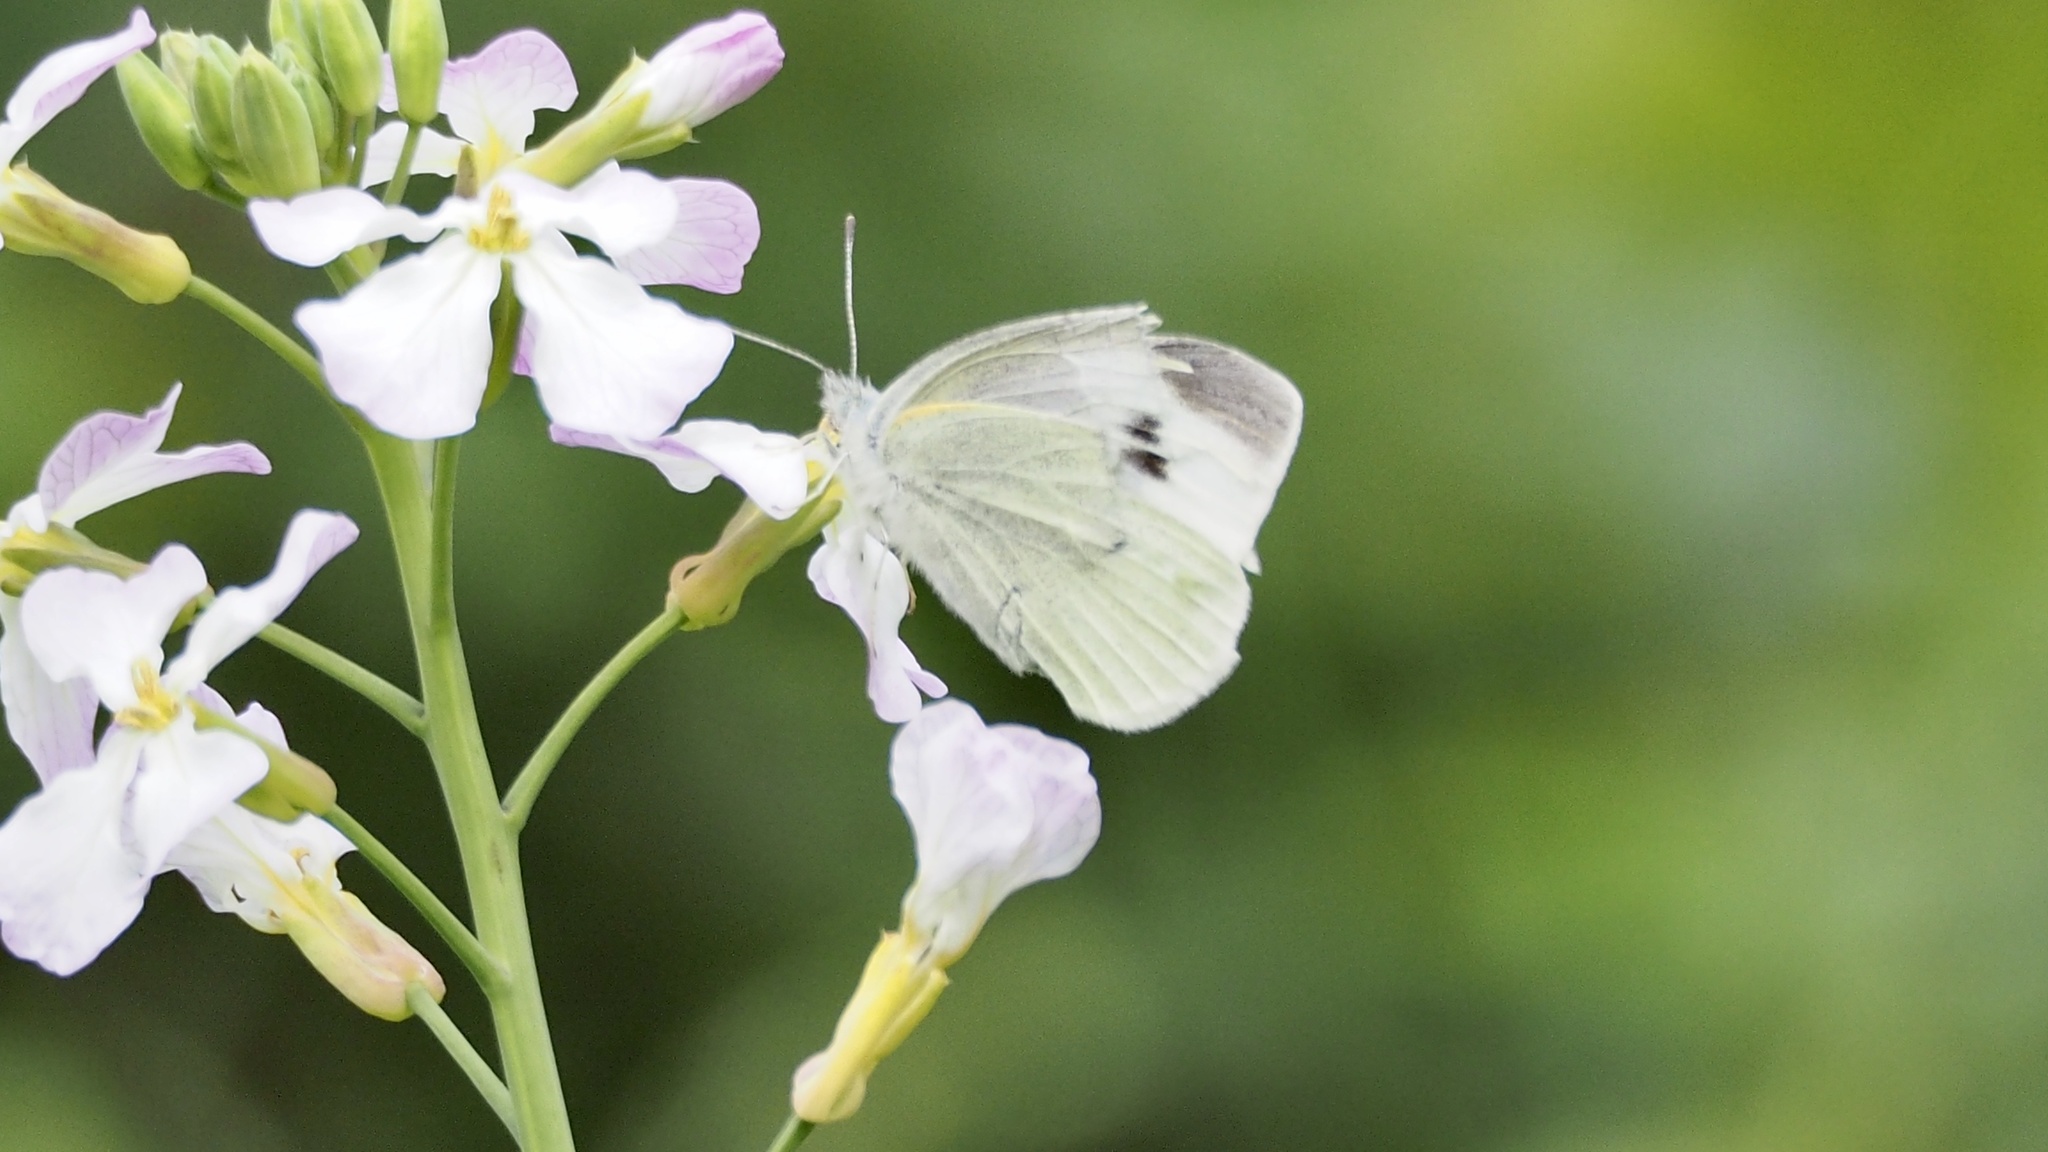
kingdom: Animalia
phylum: Arthropoda
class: Insecta
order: Lepidoptera
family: Pieridae
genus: Pieris
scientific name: Pieris rapae
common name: Small white
